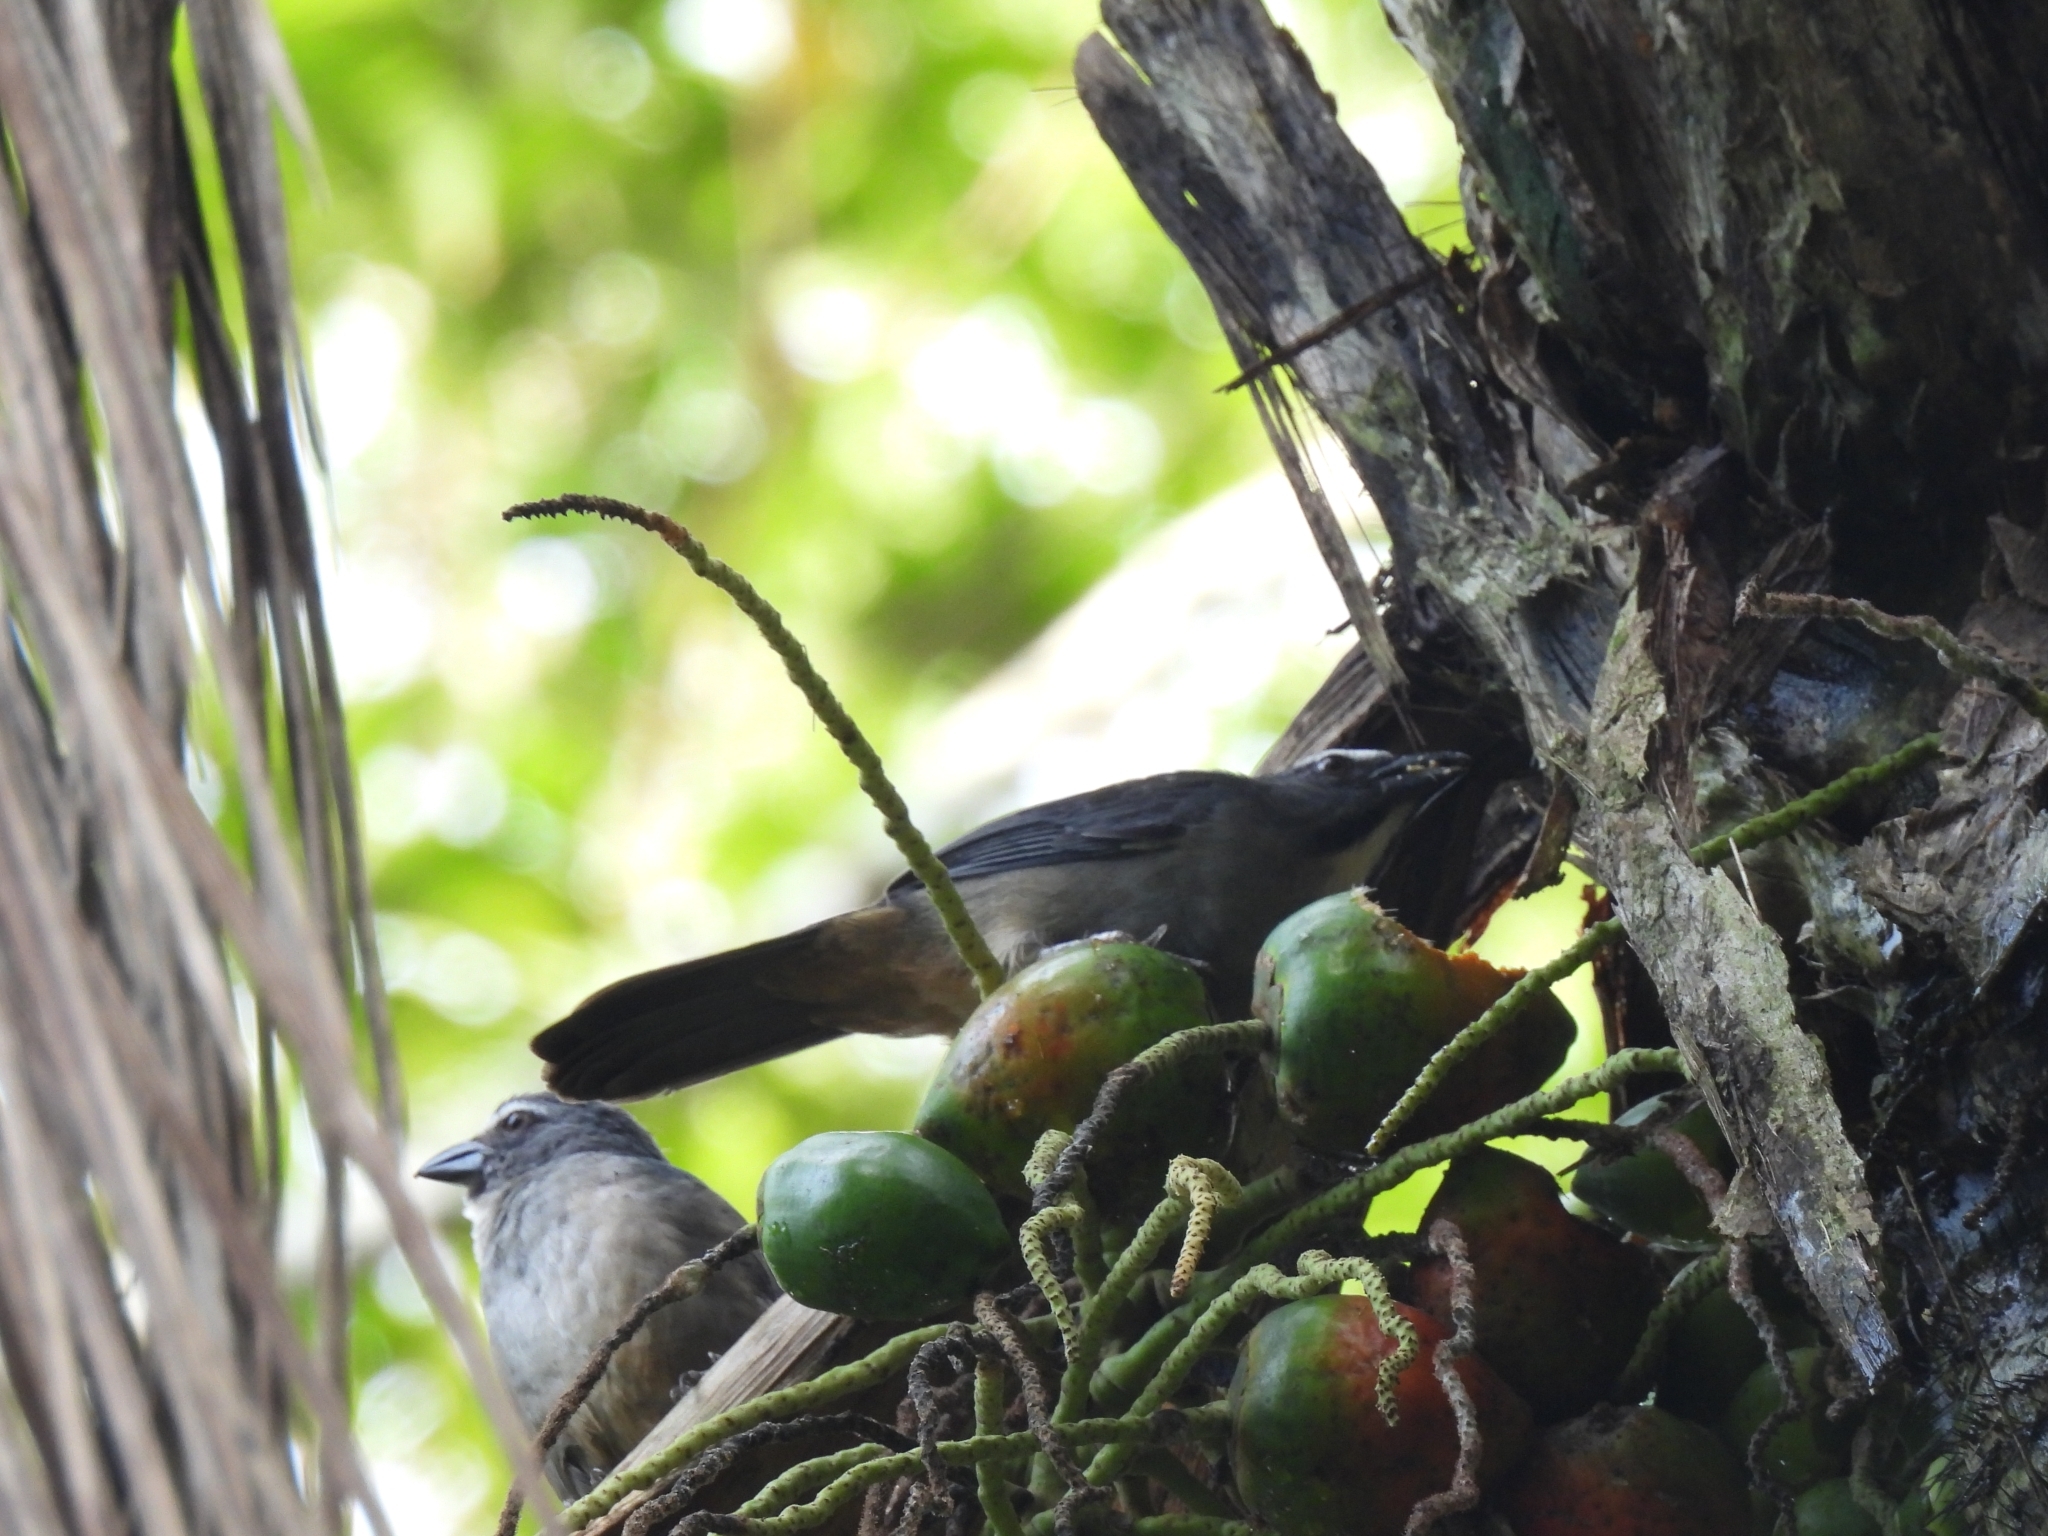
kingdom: Animalia
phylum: Chordata
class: Aves
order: Passeriformes
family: Thraupidae
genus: Saltator
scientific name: Saltator coerulescens
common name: Grayish saltator
